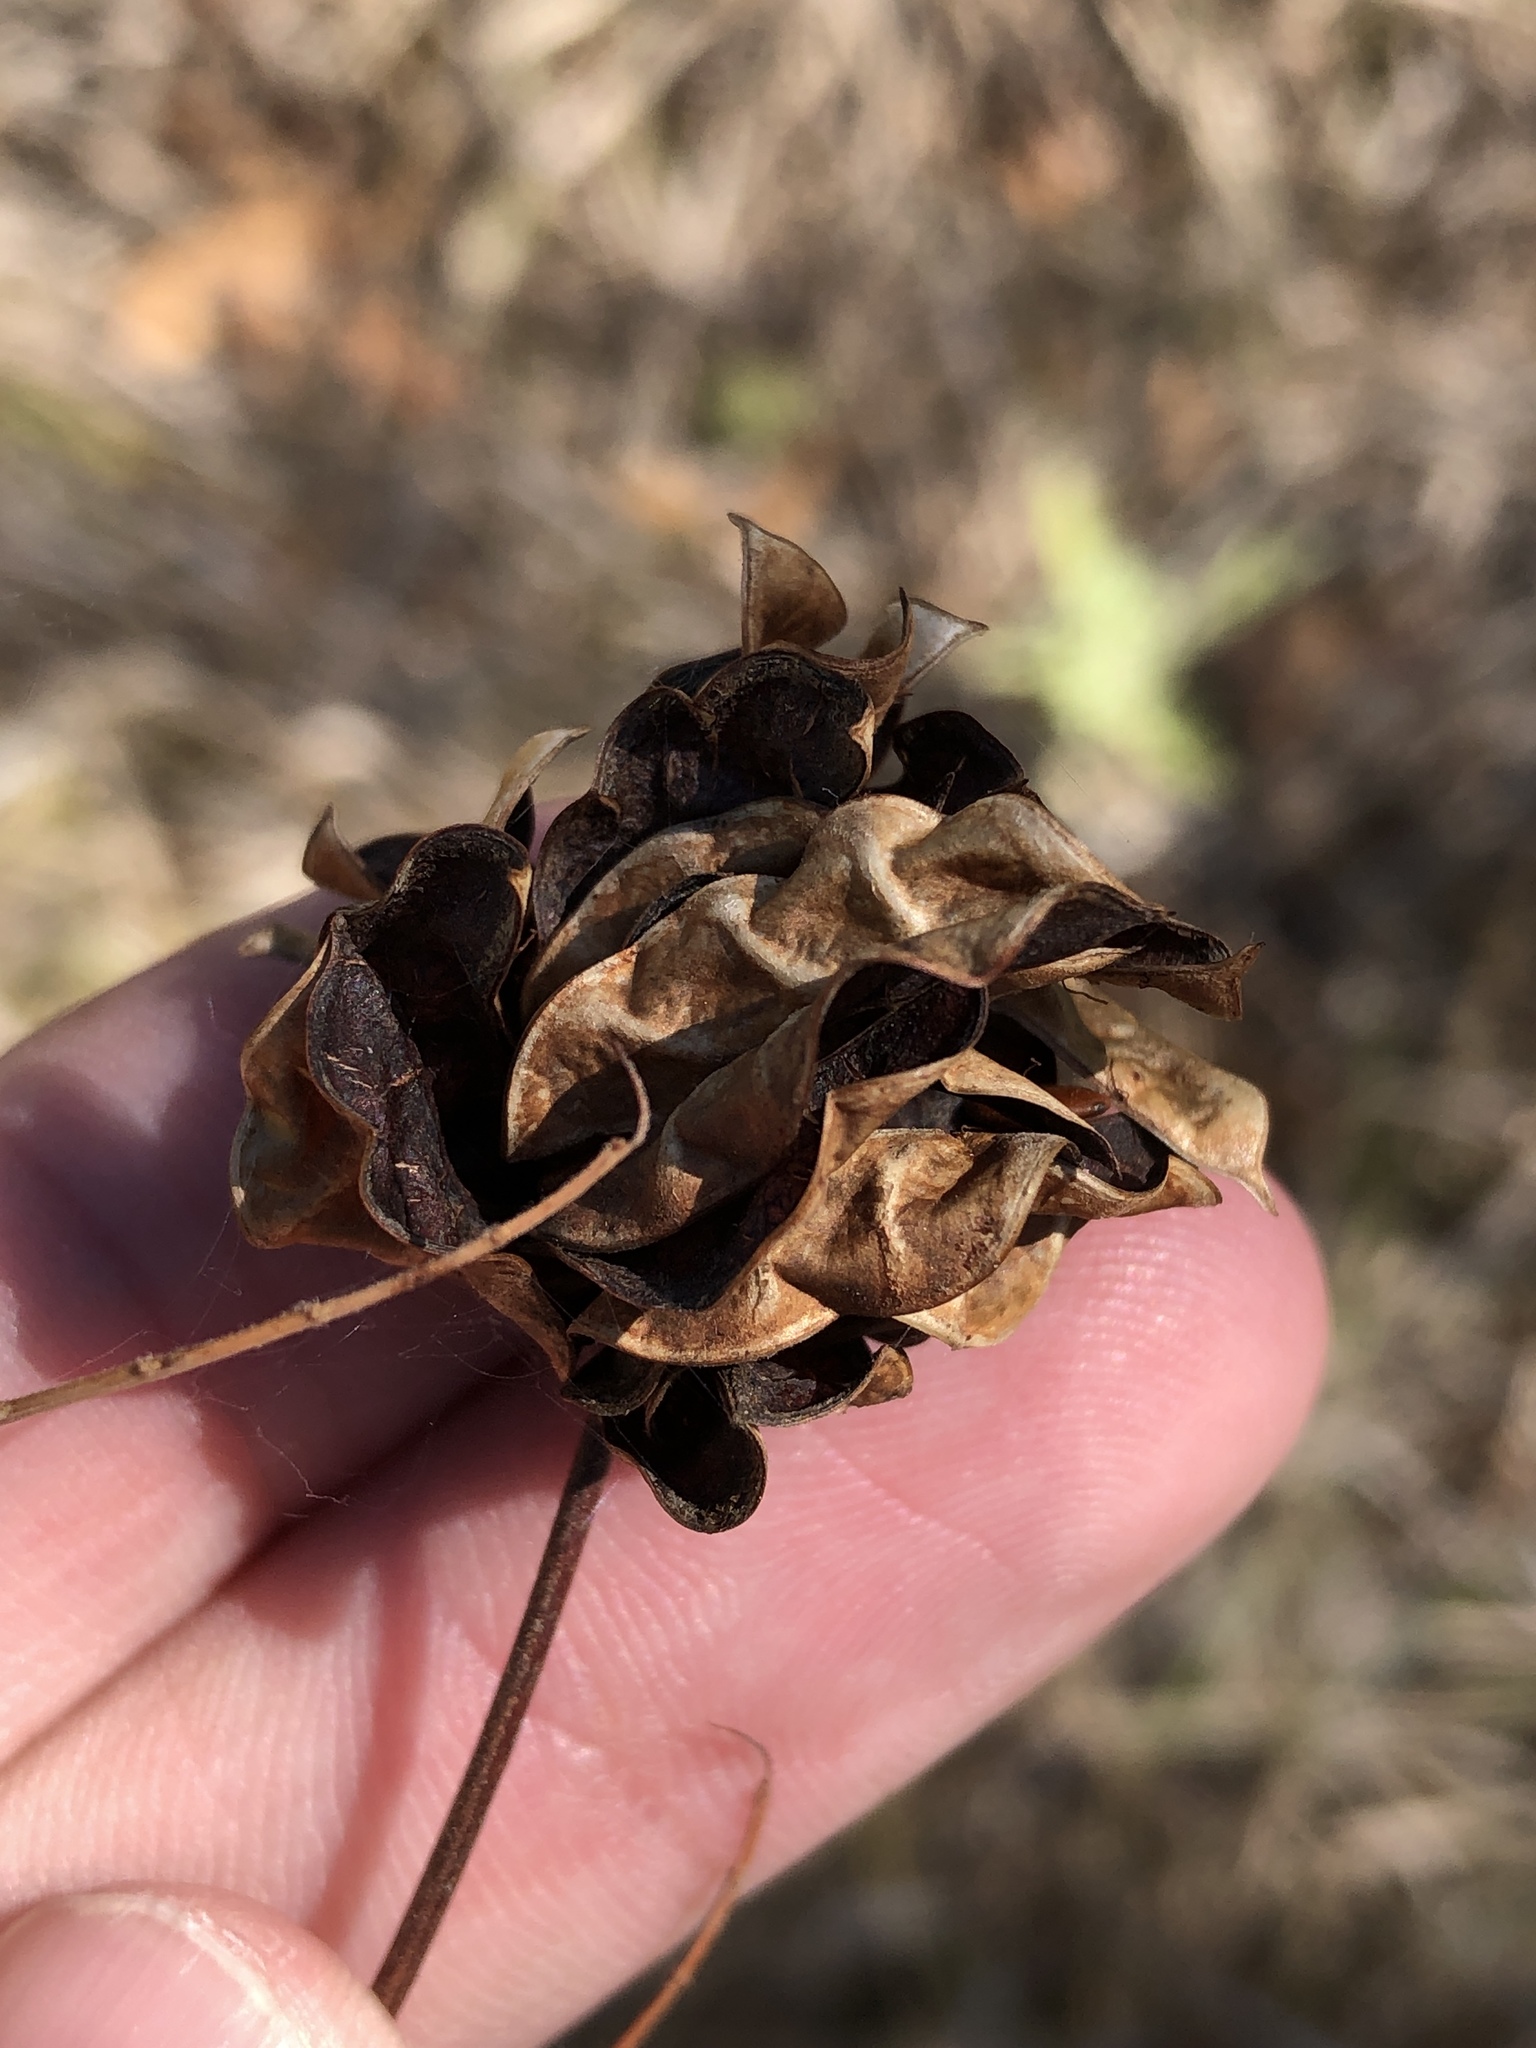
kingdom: Plantae
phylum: Tracheophyta
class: Magnoliopsida
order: Fabales
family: Fabaceae
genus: Desmanthus
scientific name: Desmanthus illinoensis
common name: Illinois bundle-flower
